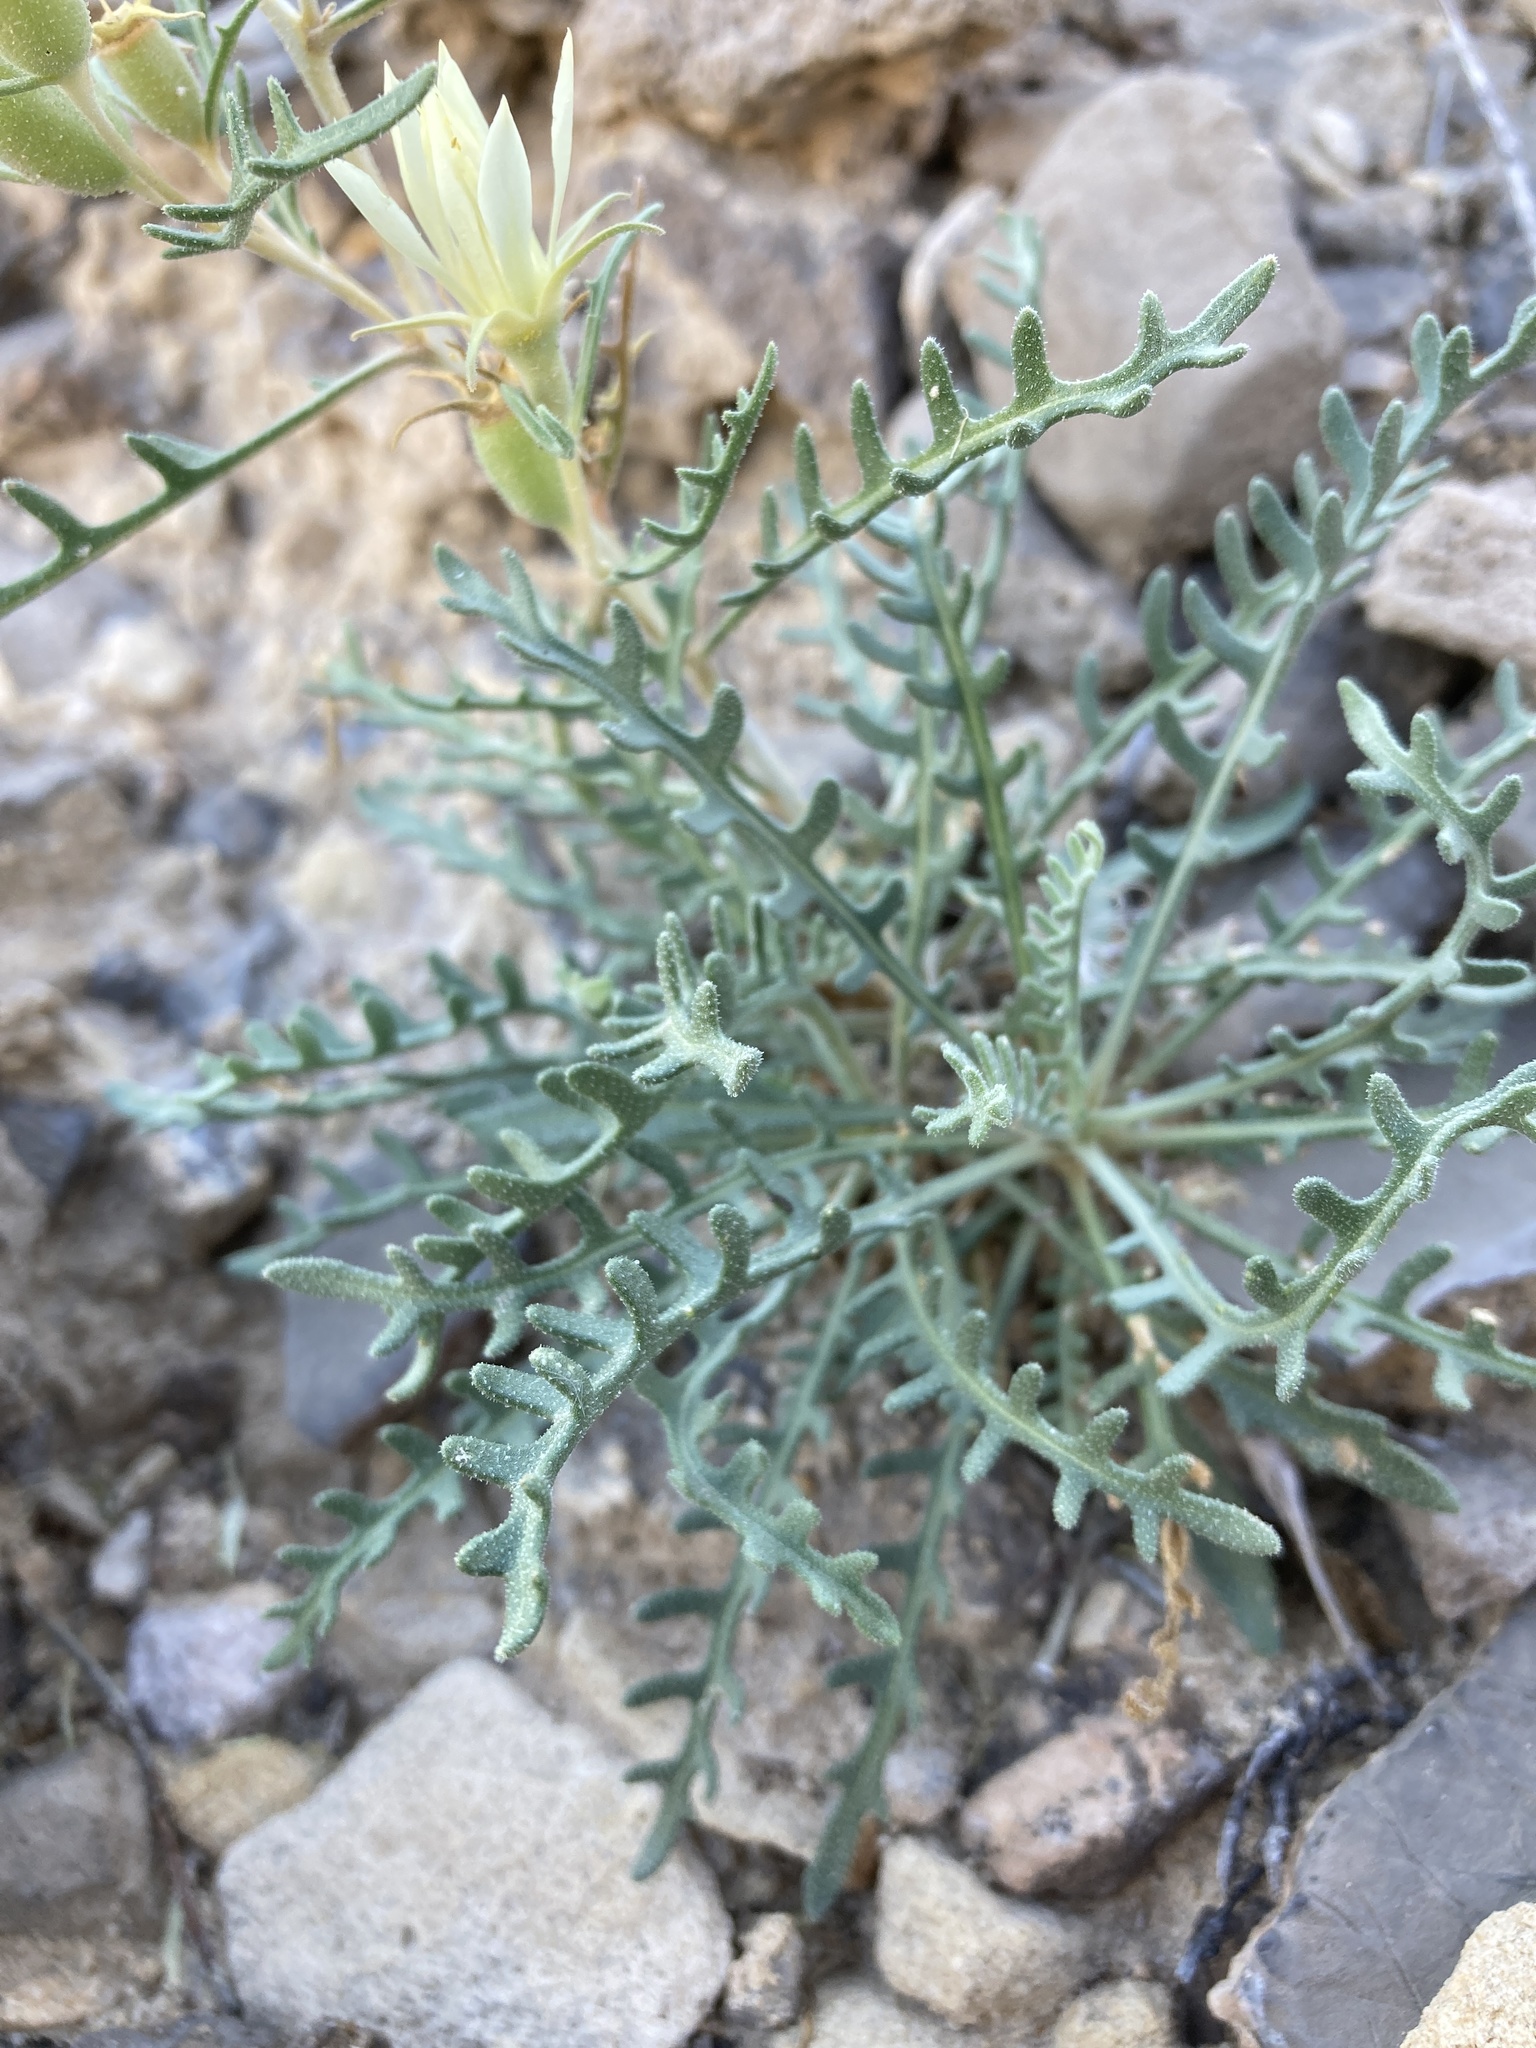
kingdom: Plantae
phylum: Tracheophyta
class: Magnoliopsida
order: Cornales
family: Loasaceae
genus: Mentzelia
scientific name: Mentzelia humilis
